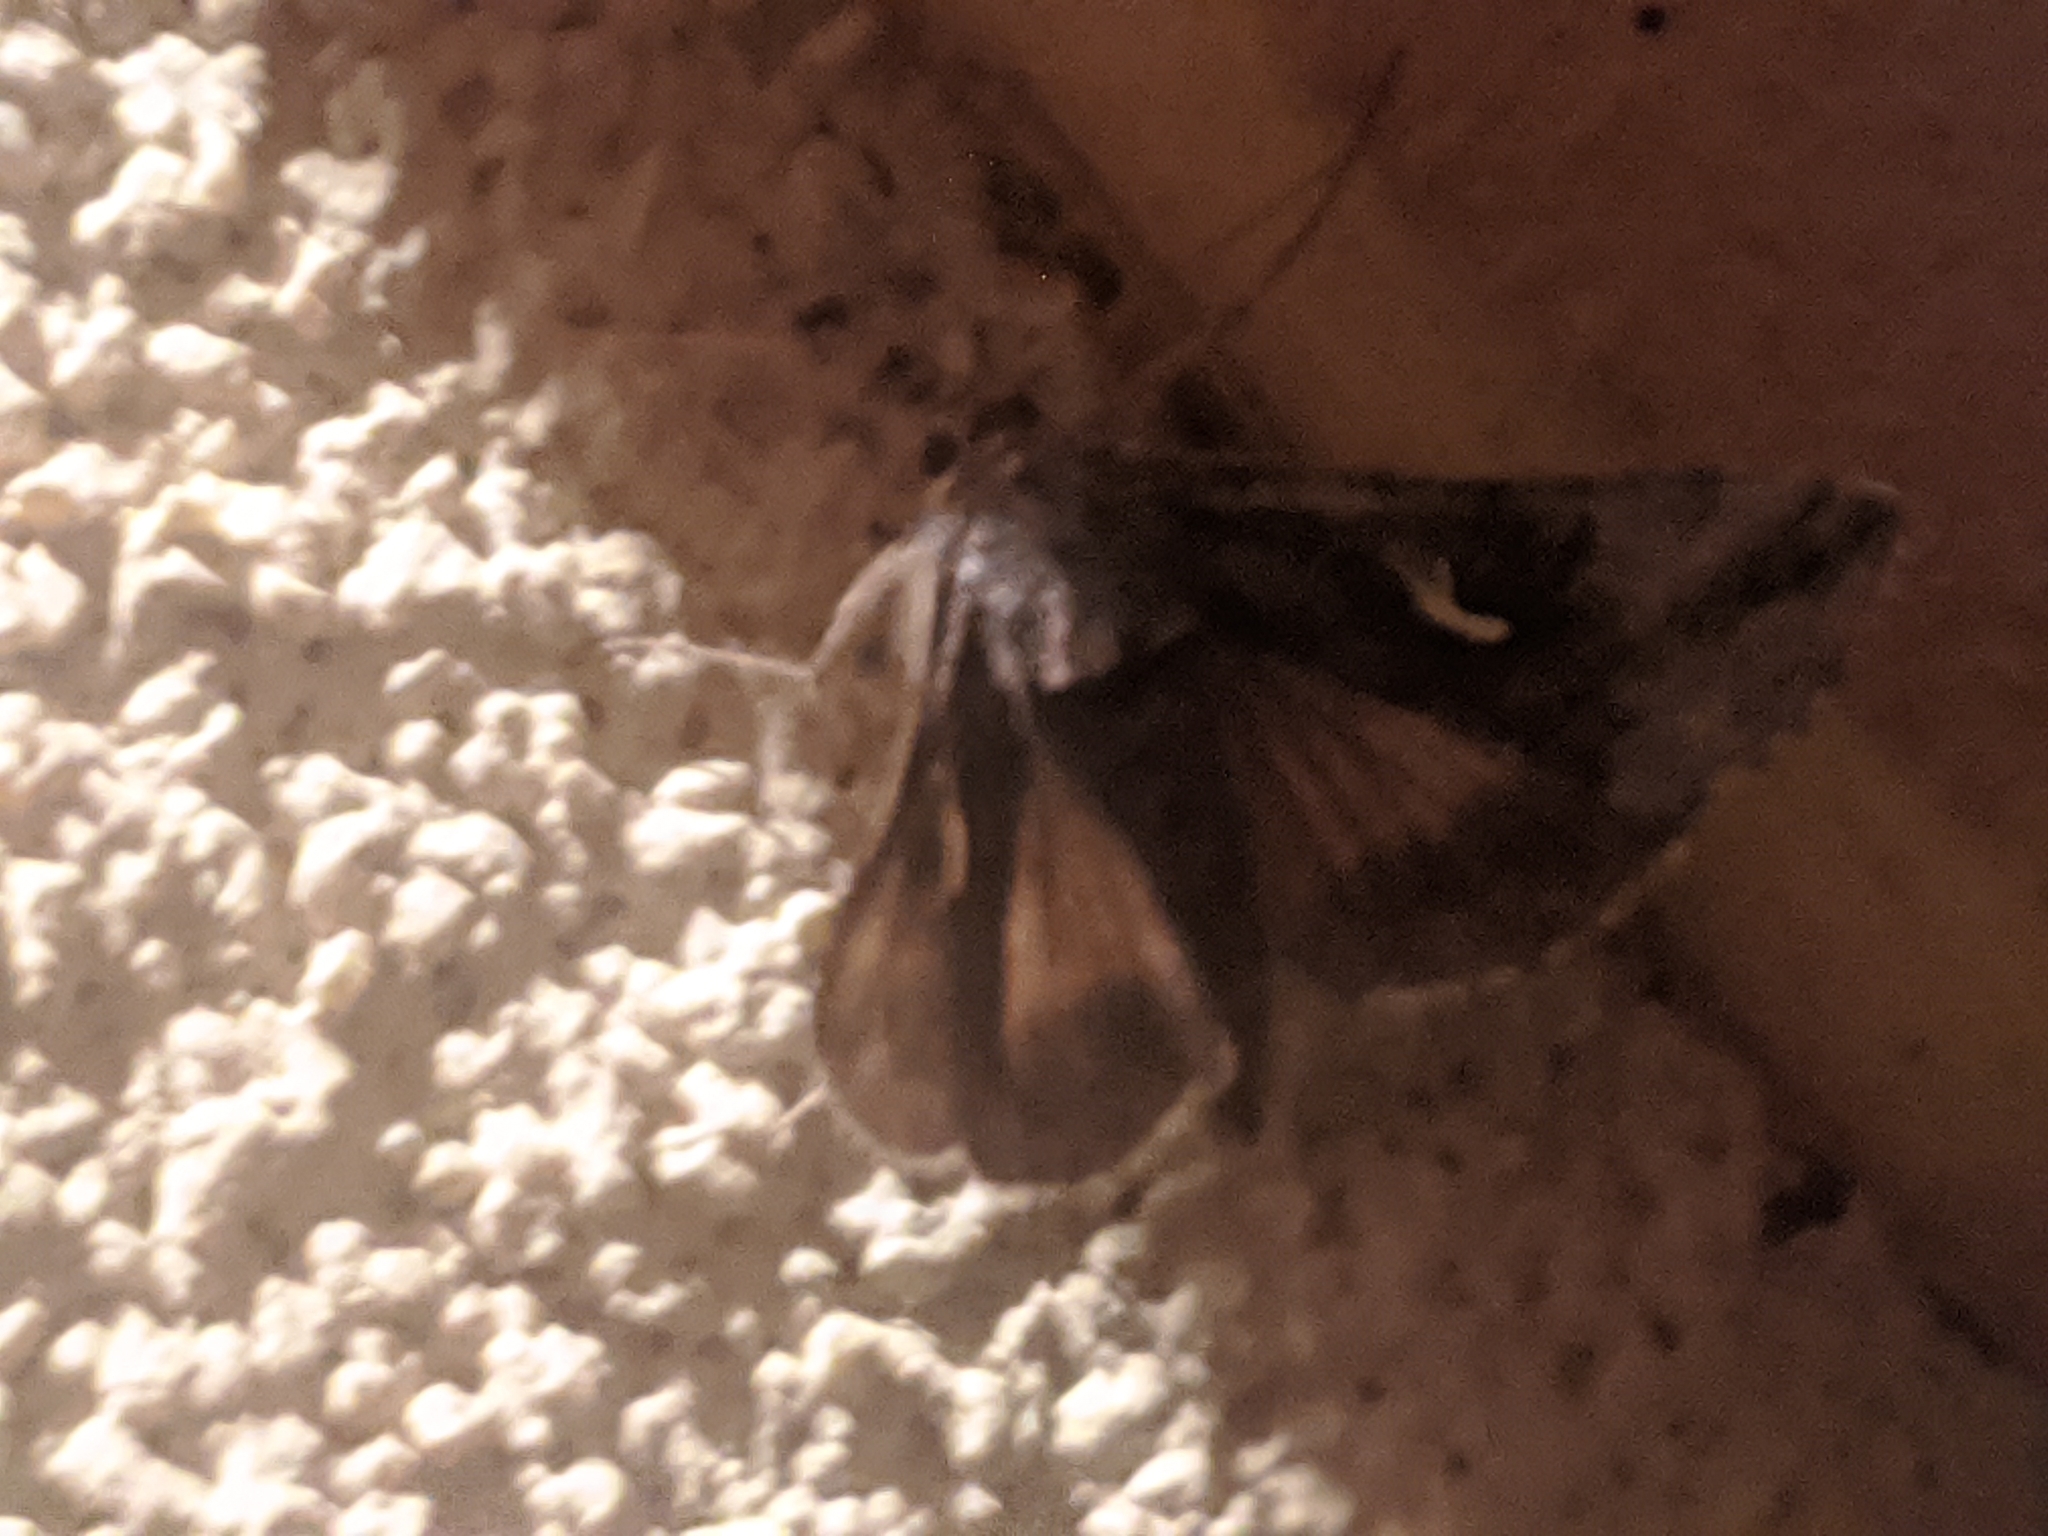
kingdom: Animalia
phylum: Arthropoda
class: Insecta
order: Lepidoptera
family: Noctuidae
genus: Autographa
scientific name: Autographa gamma
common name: Silver y
